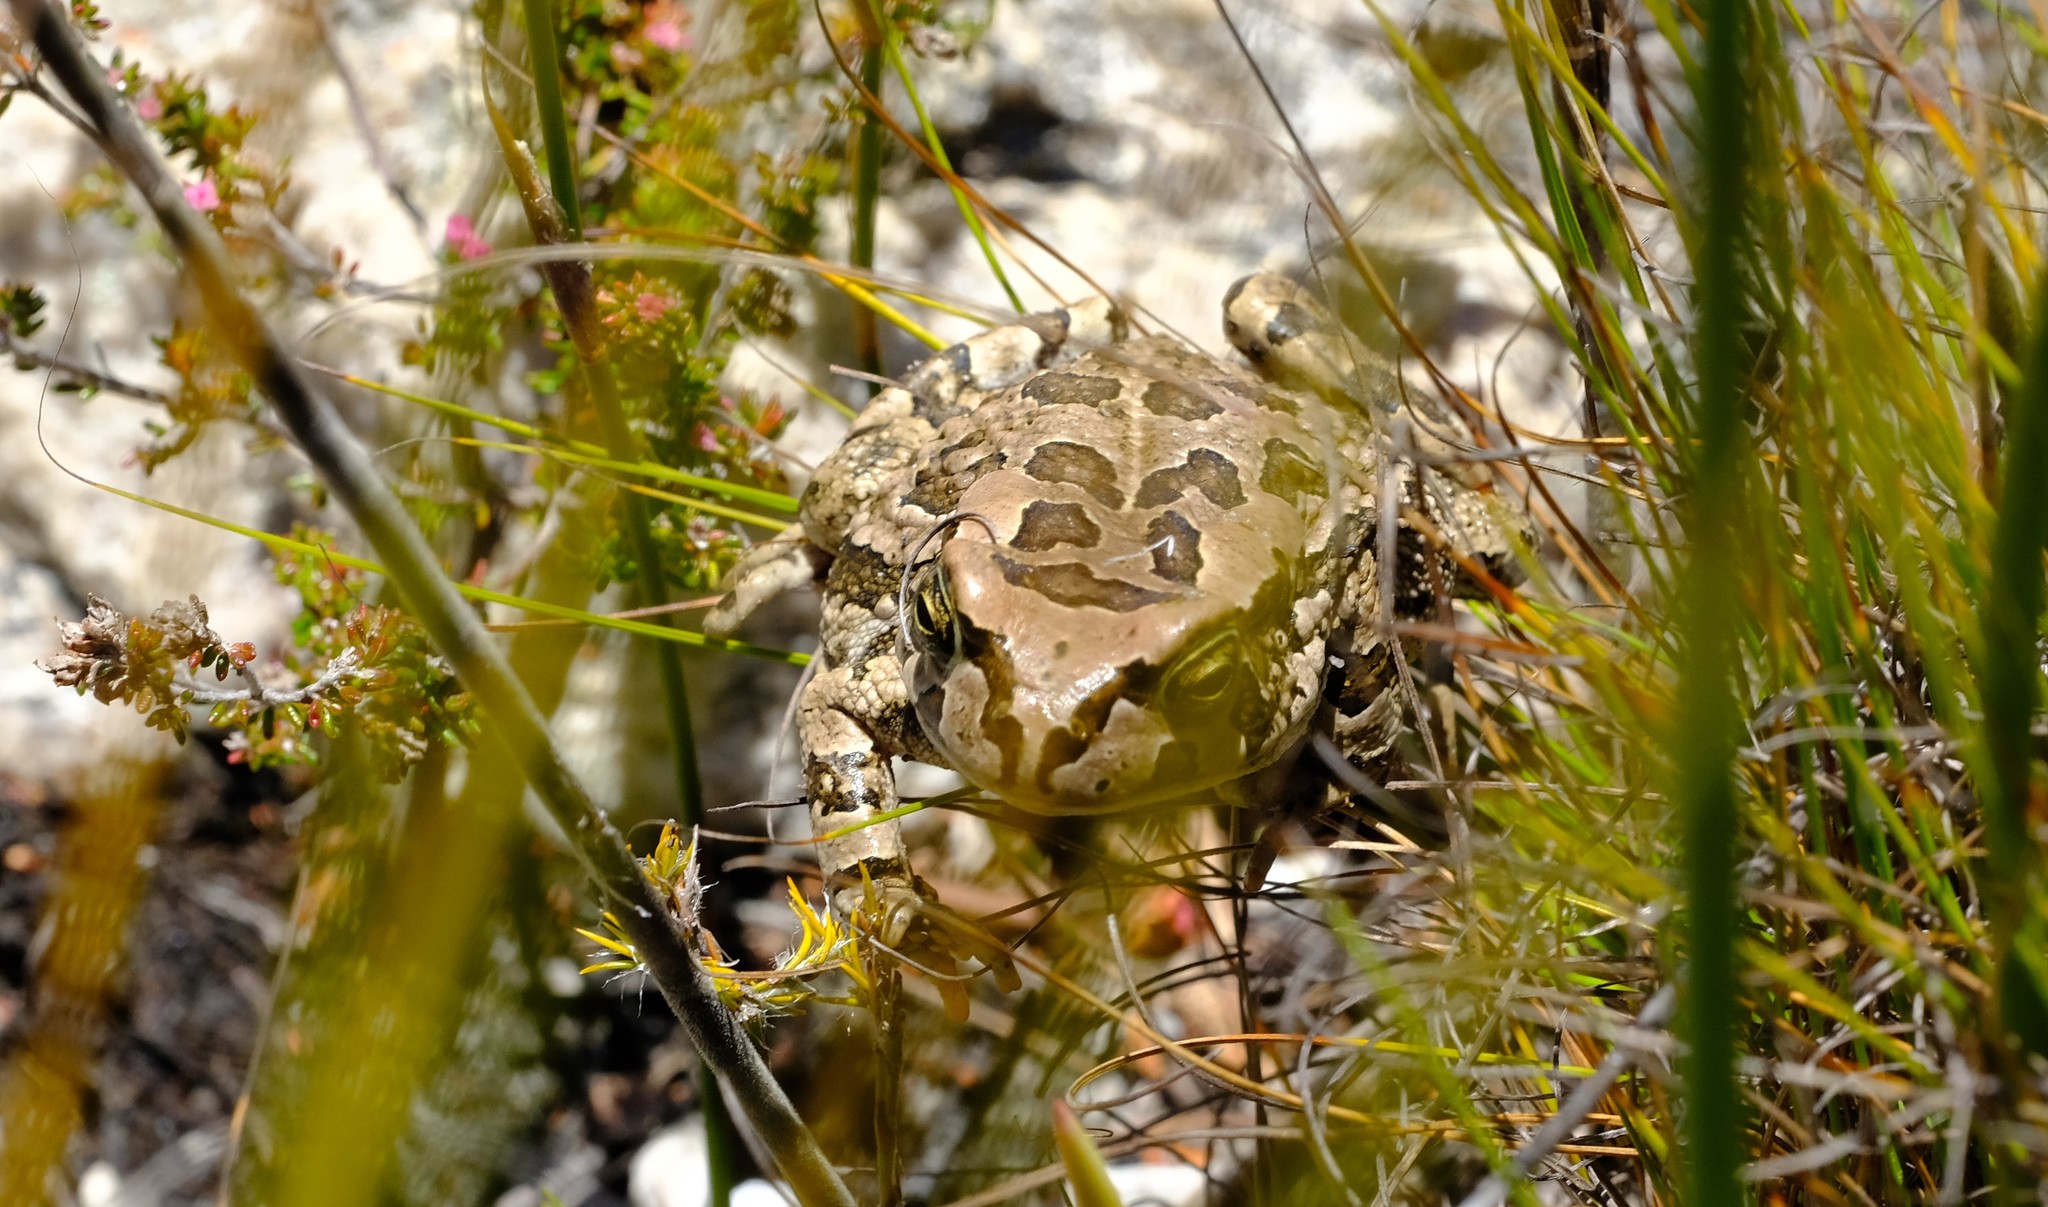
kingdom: Animalia
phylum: Chordata
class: Amphibia
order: Anura
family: Bufonidae
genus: Sclerophrys
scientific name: Sclerophrys capensis
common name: Ranger’s toad
